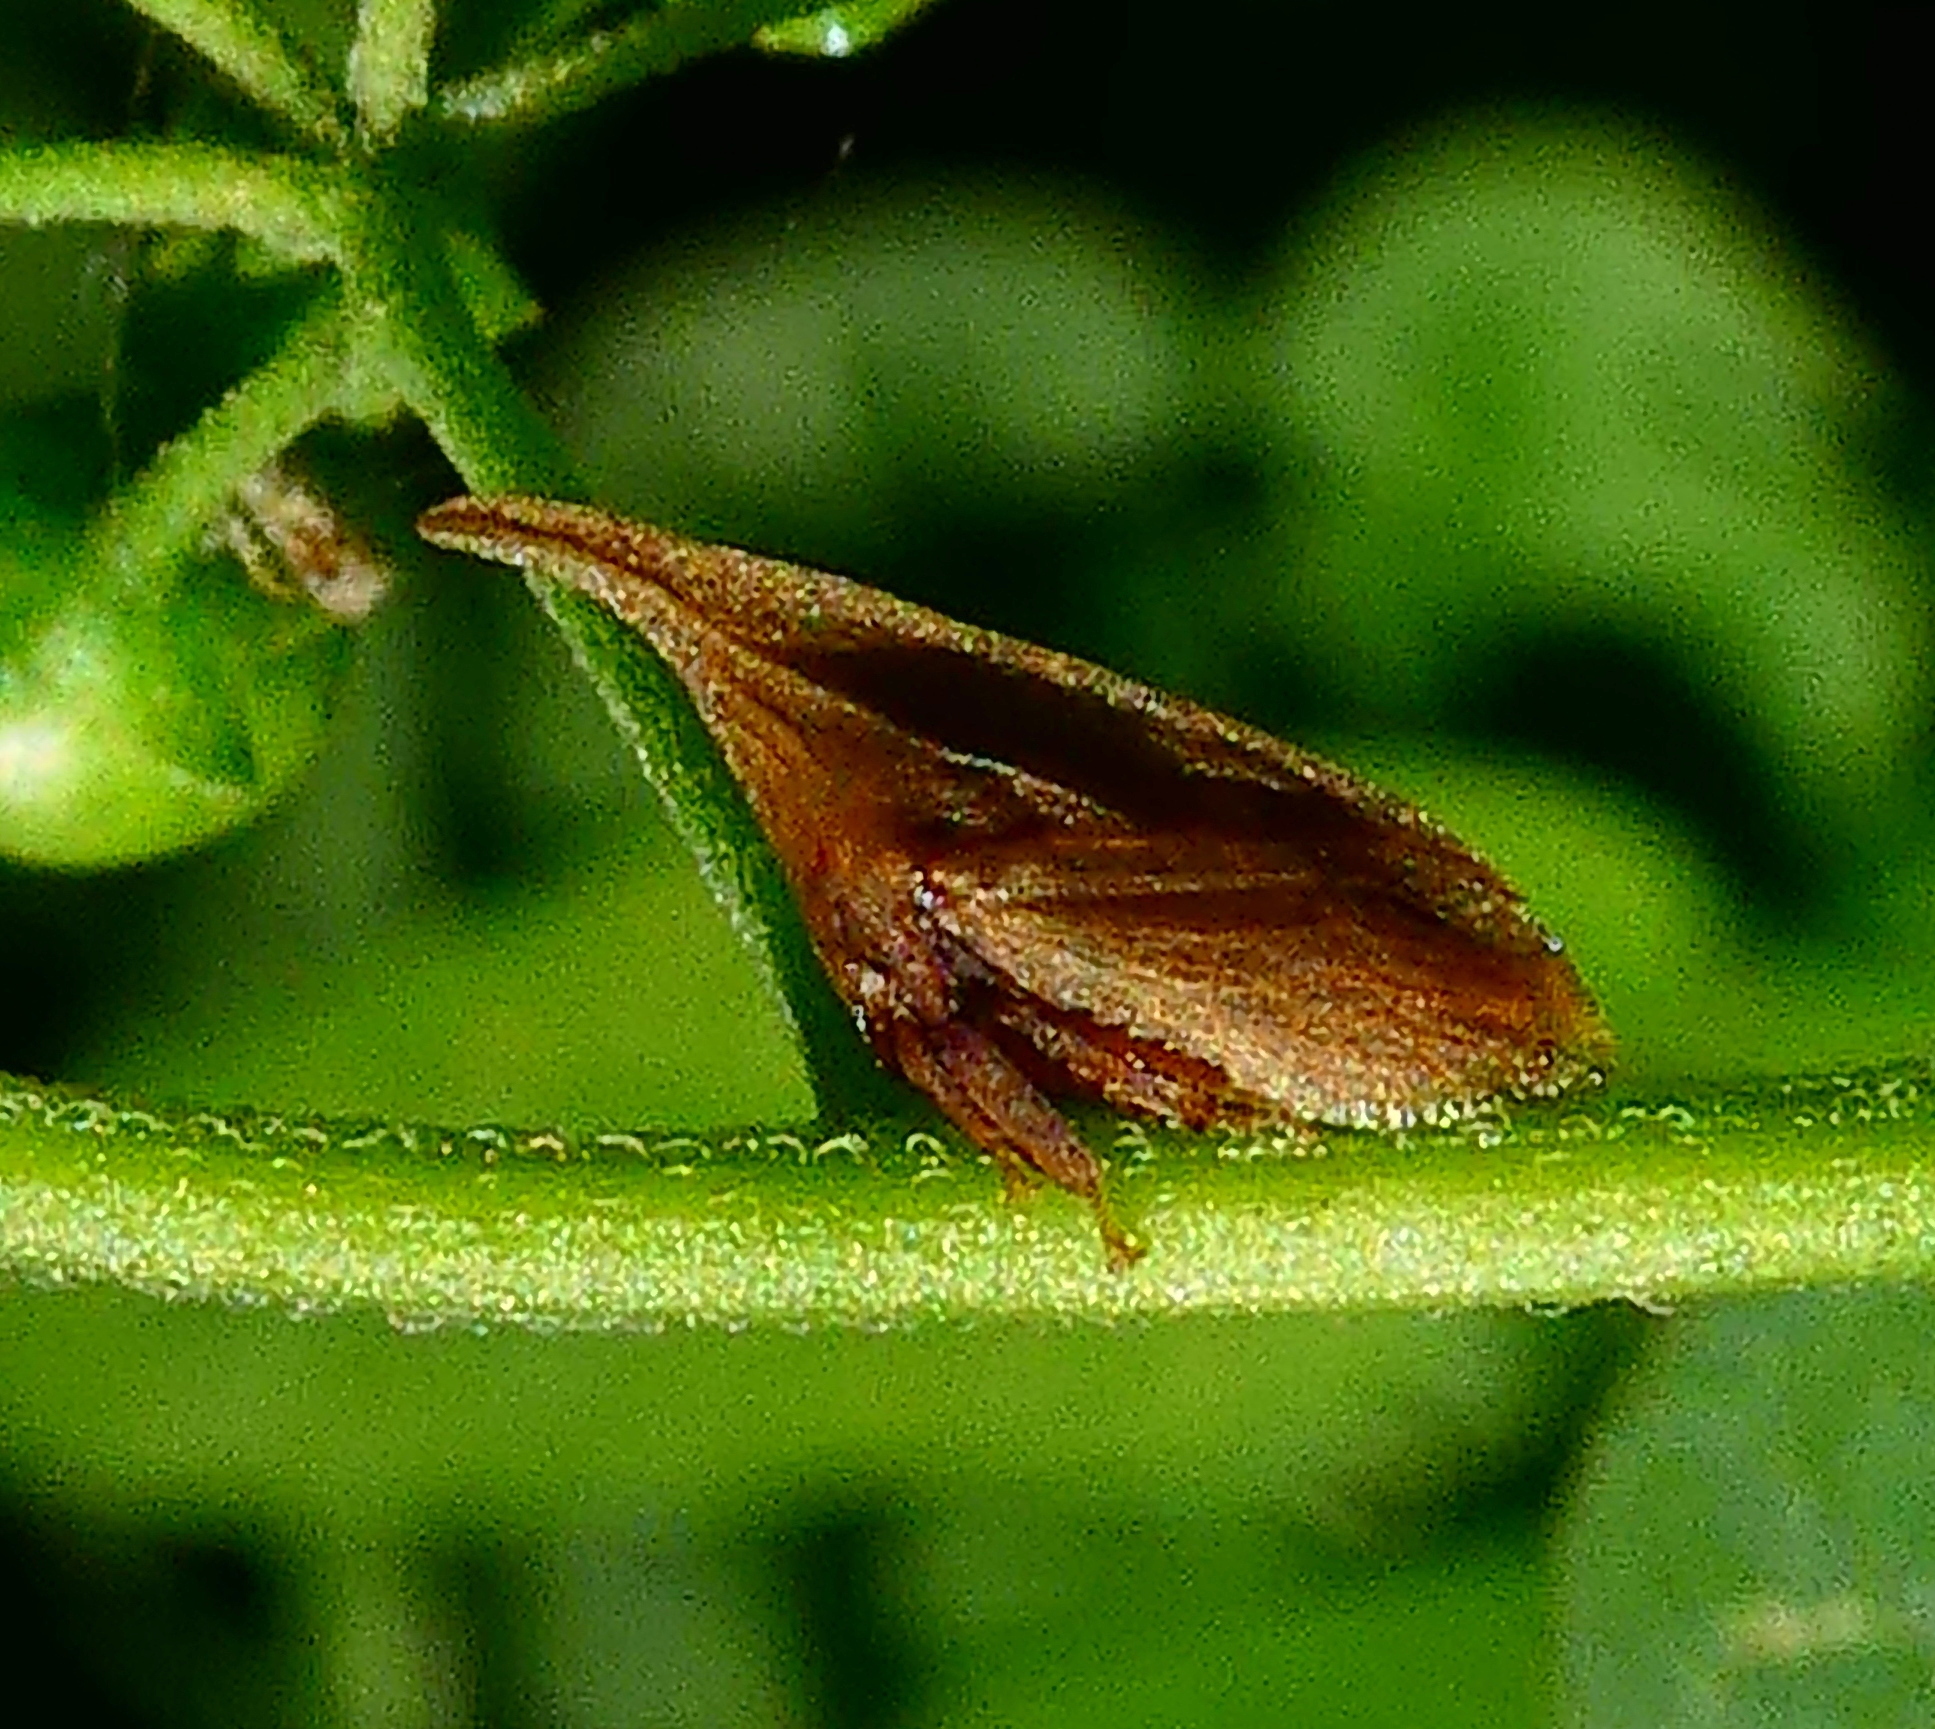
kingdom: Animalia
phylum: Arthropoda
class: Insecta
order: Hemiptera
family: Membracidae
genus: Enchenopa
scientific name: Enchenopa squamigera
